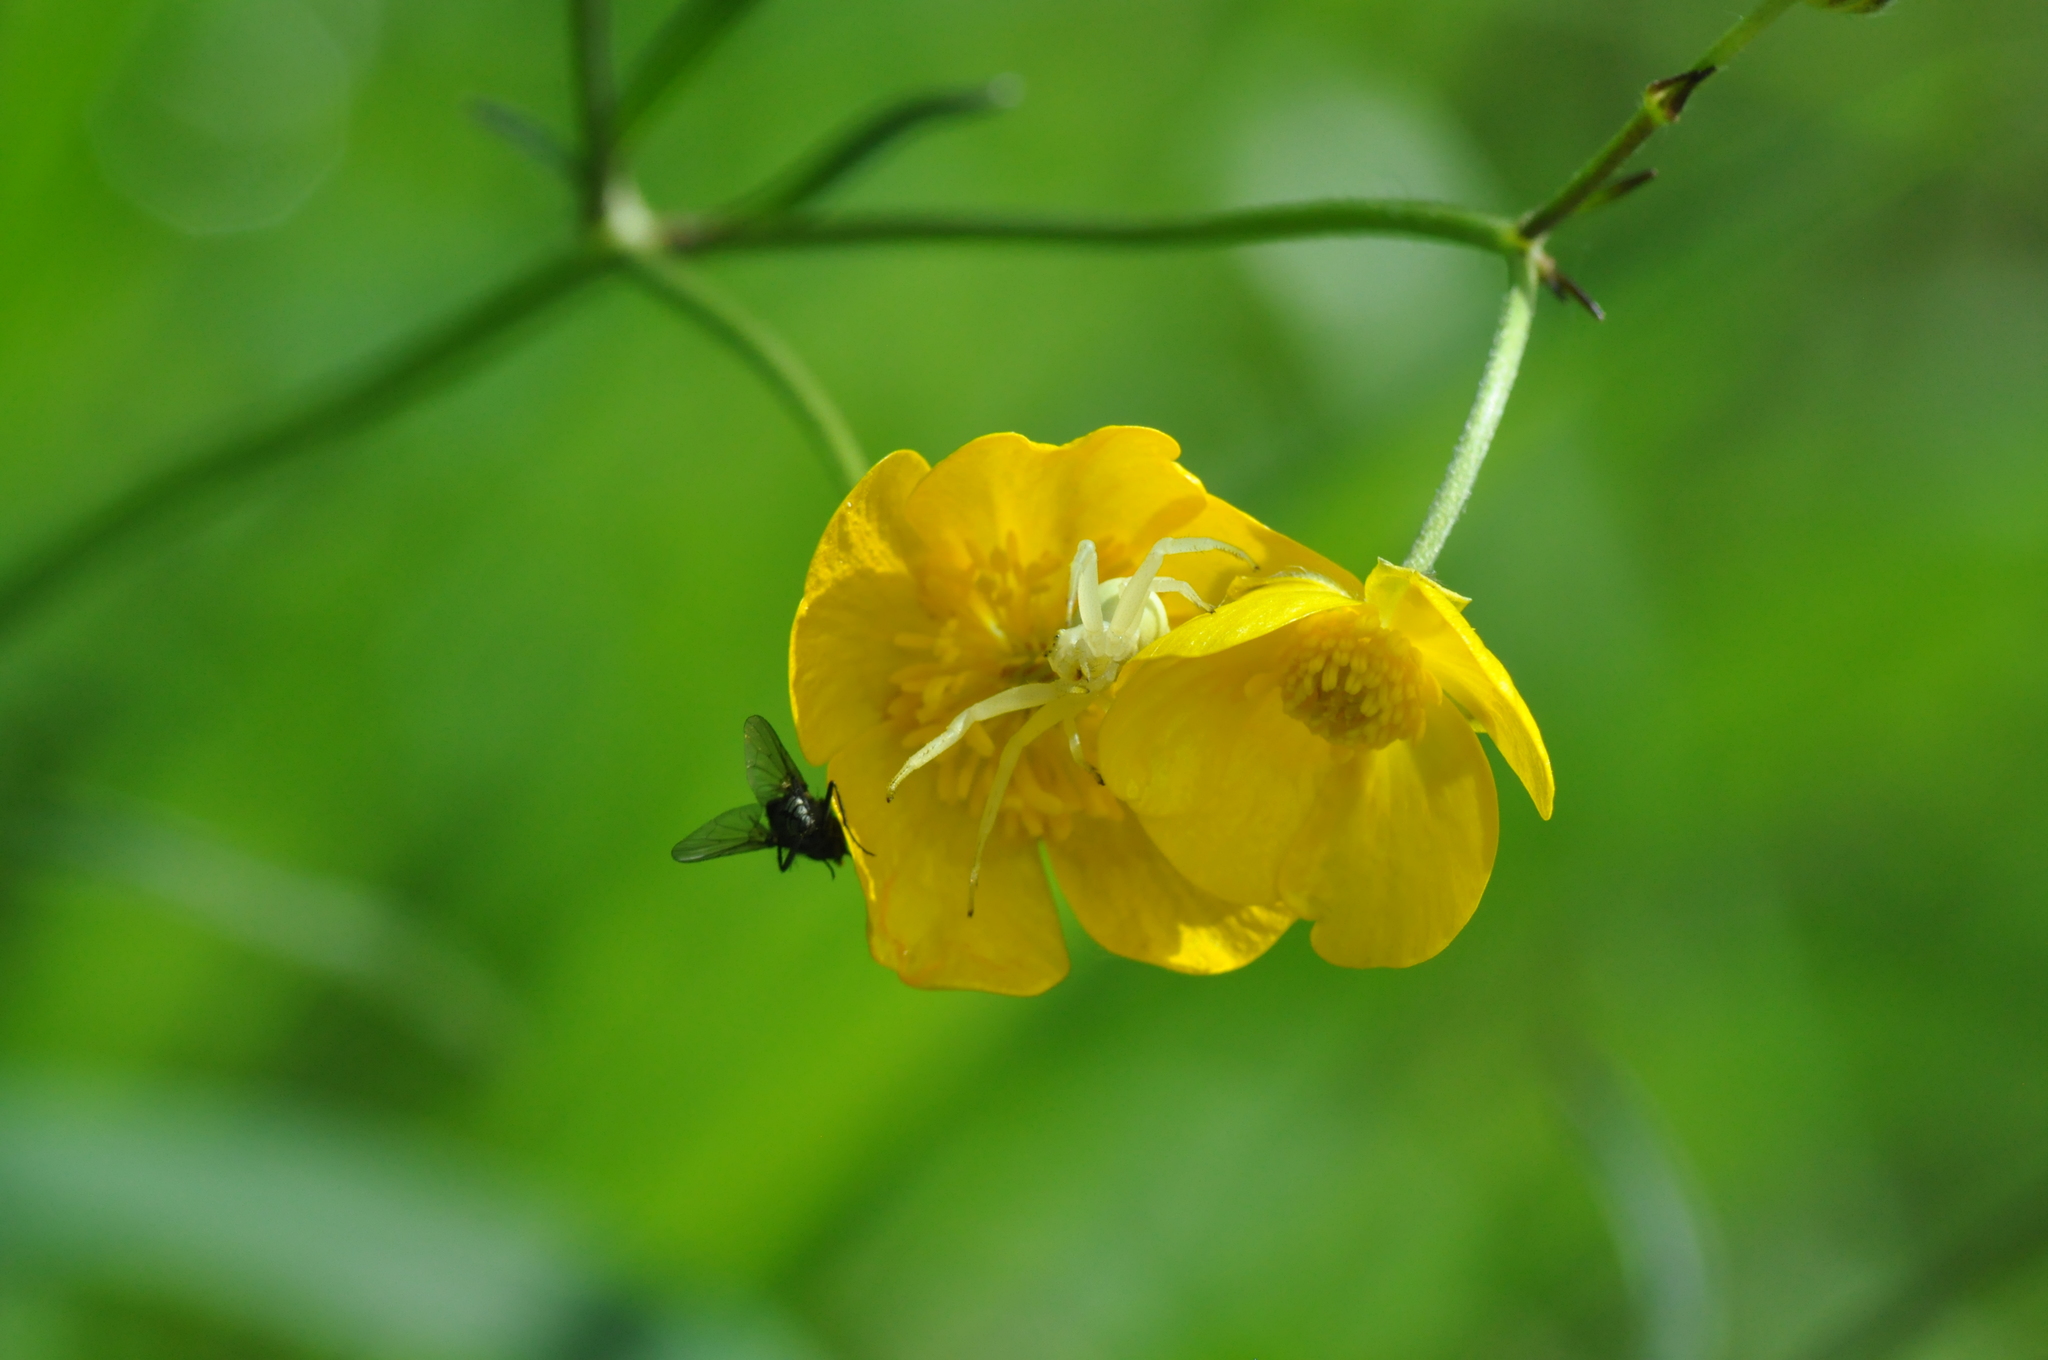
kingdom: Animalia
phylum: Arthropoda
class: Arachnida
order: Araneae
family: Thomisidae
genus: Misumena
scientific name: Misumena vatia
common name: Goldenrod crab spider
